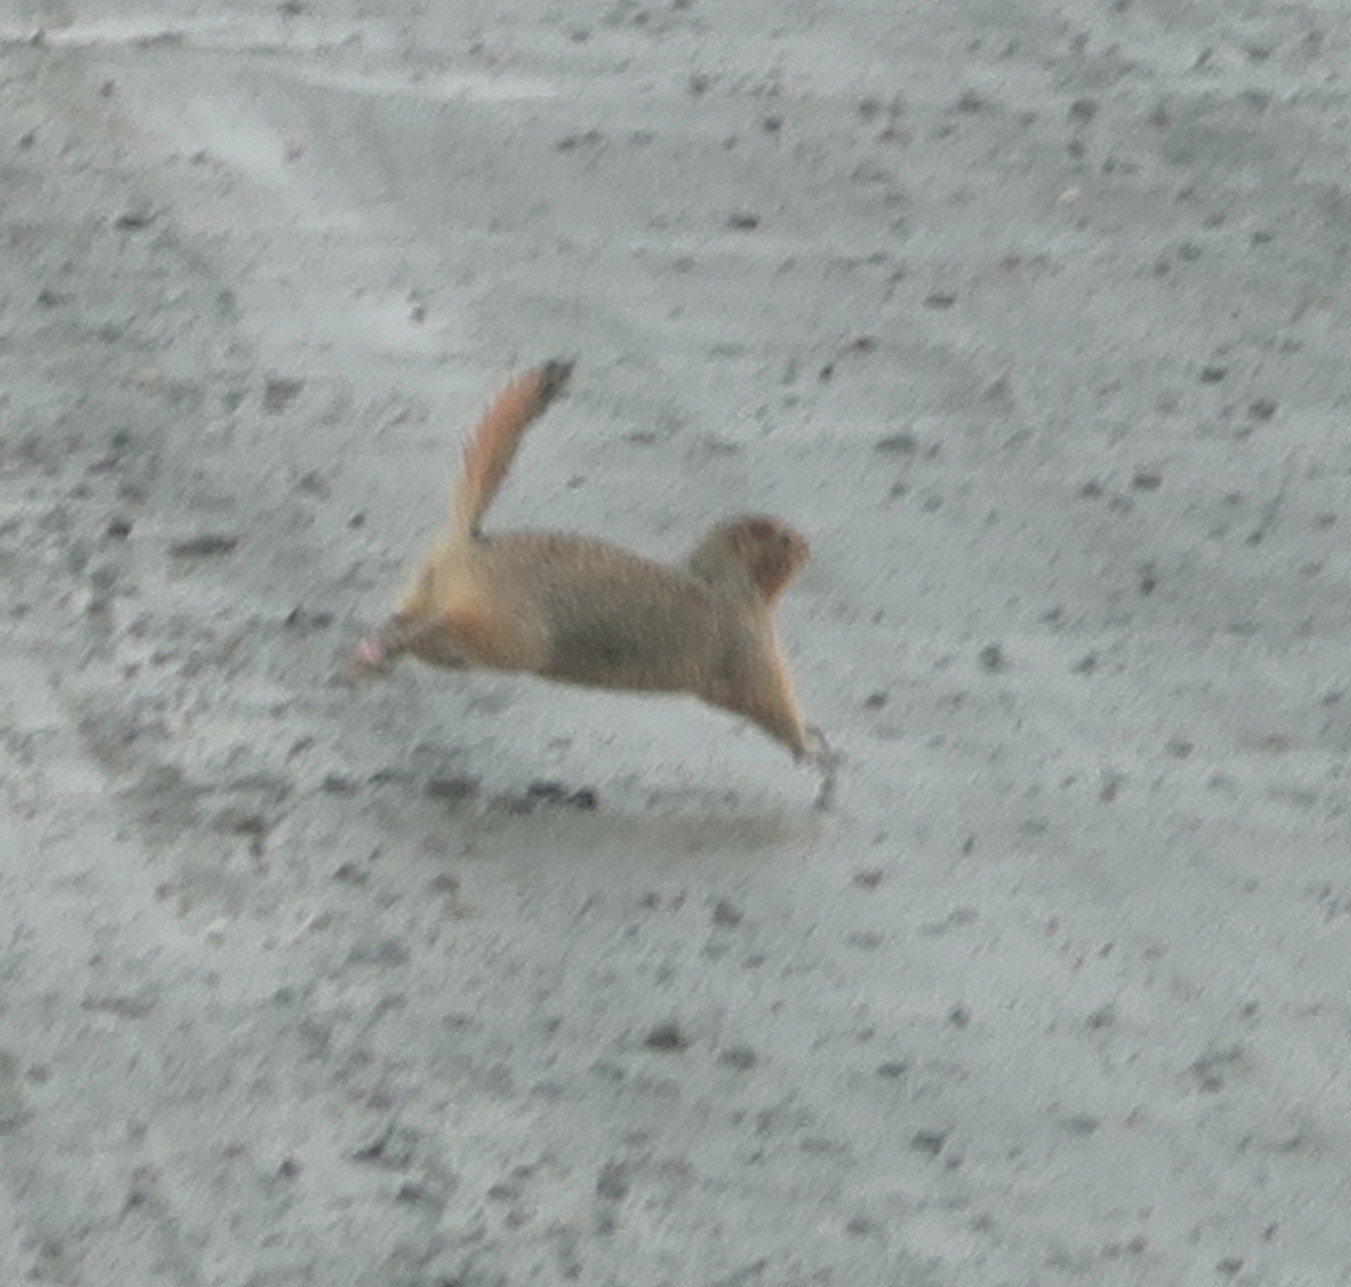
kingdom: Animalia
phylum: Chordata
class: Mammalia
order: Rodentia
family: Sciuridae
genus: Urocitellus
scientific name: Urocitellus parryii
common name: Arctic ground squirrel
